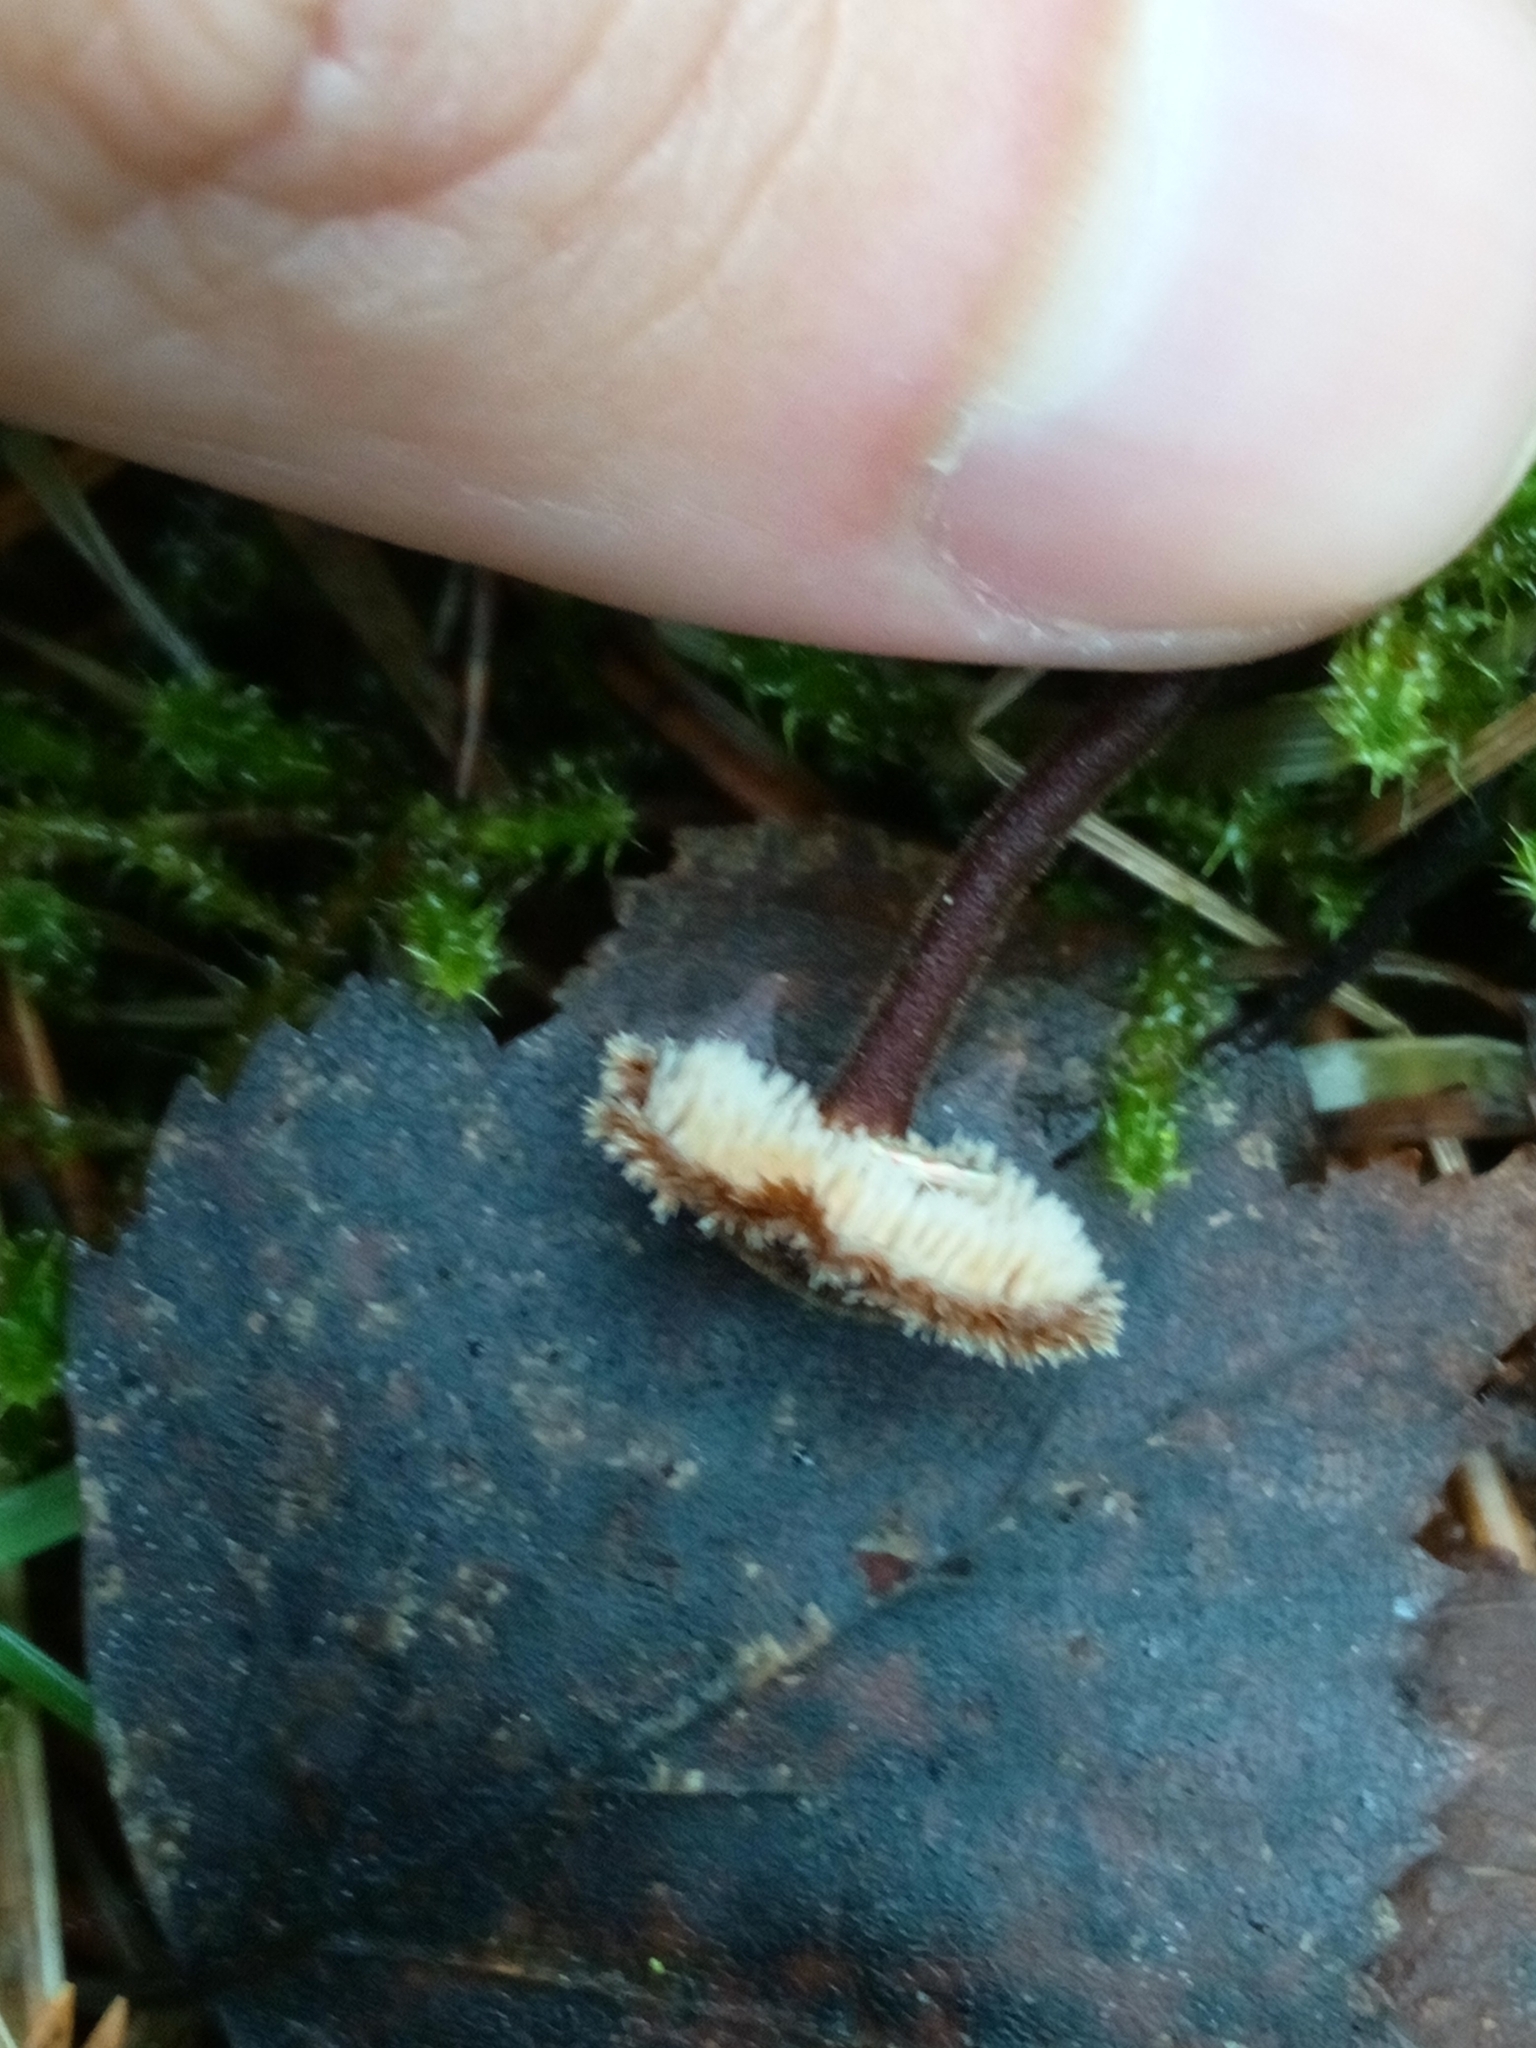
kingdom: Fungi
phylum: Basidiomycota
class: Agaricomycetes
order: Russulales
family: Auriscalpiaceae
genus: Auriscalpium
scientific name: Auriscalpium vulgare
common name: Earpick fungus
